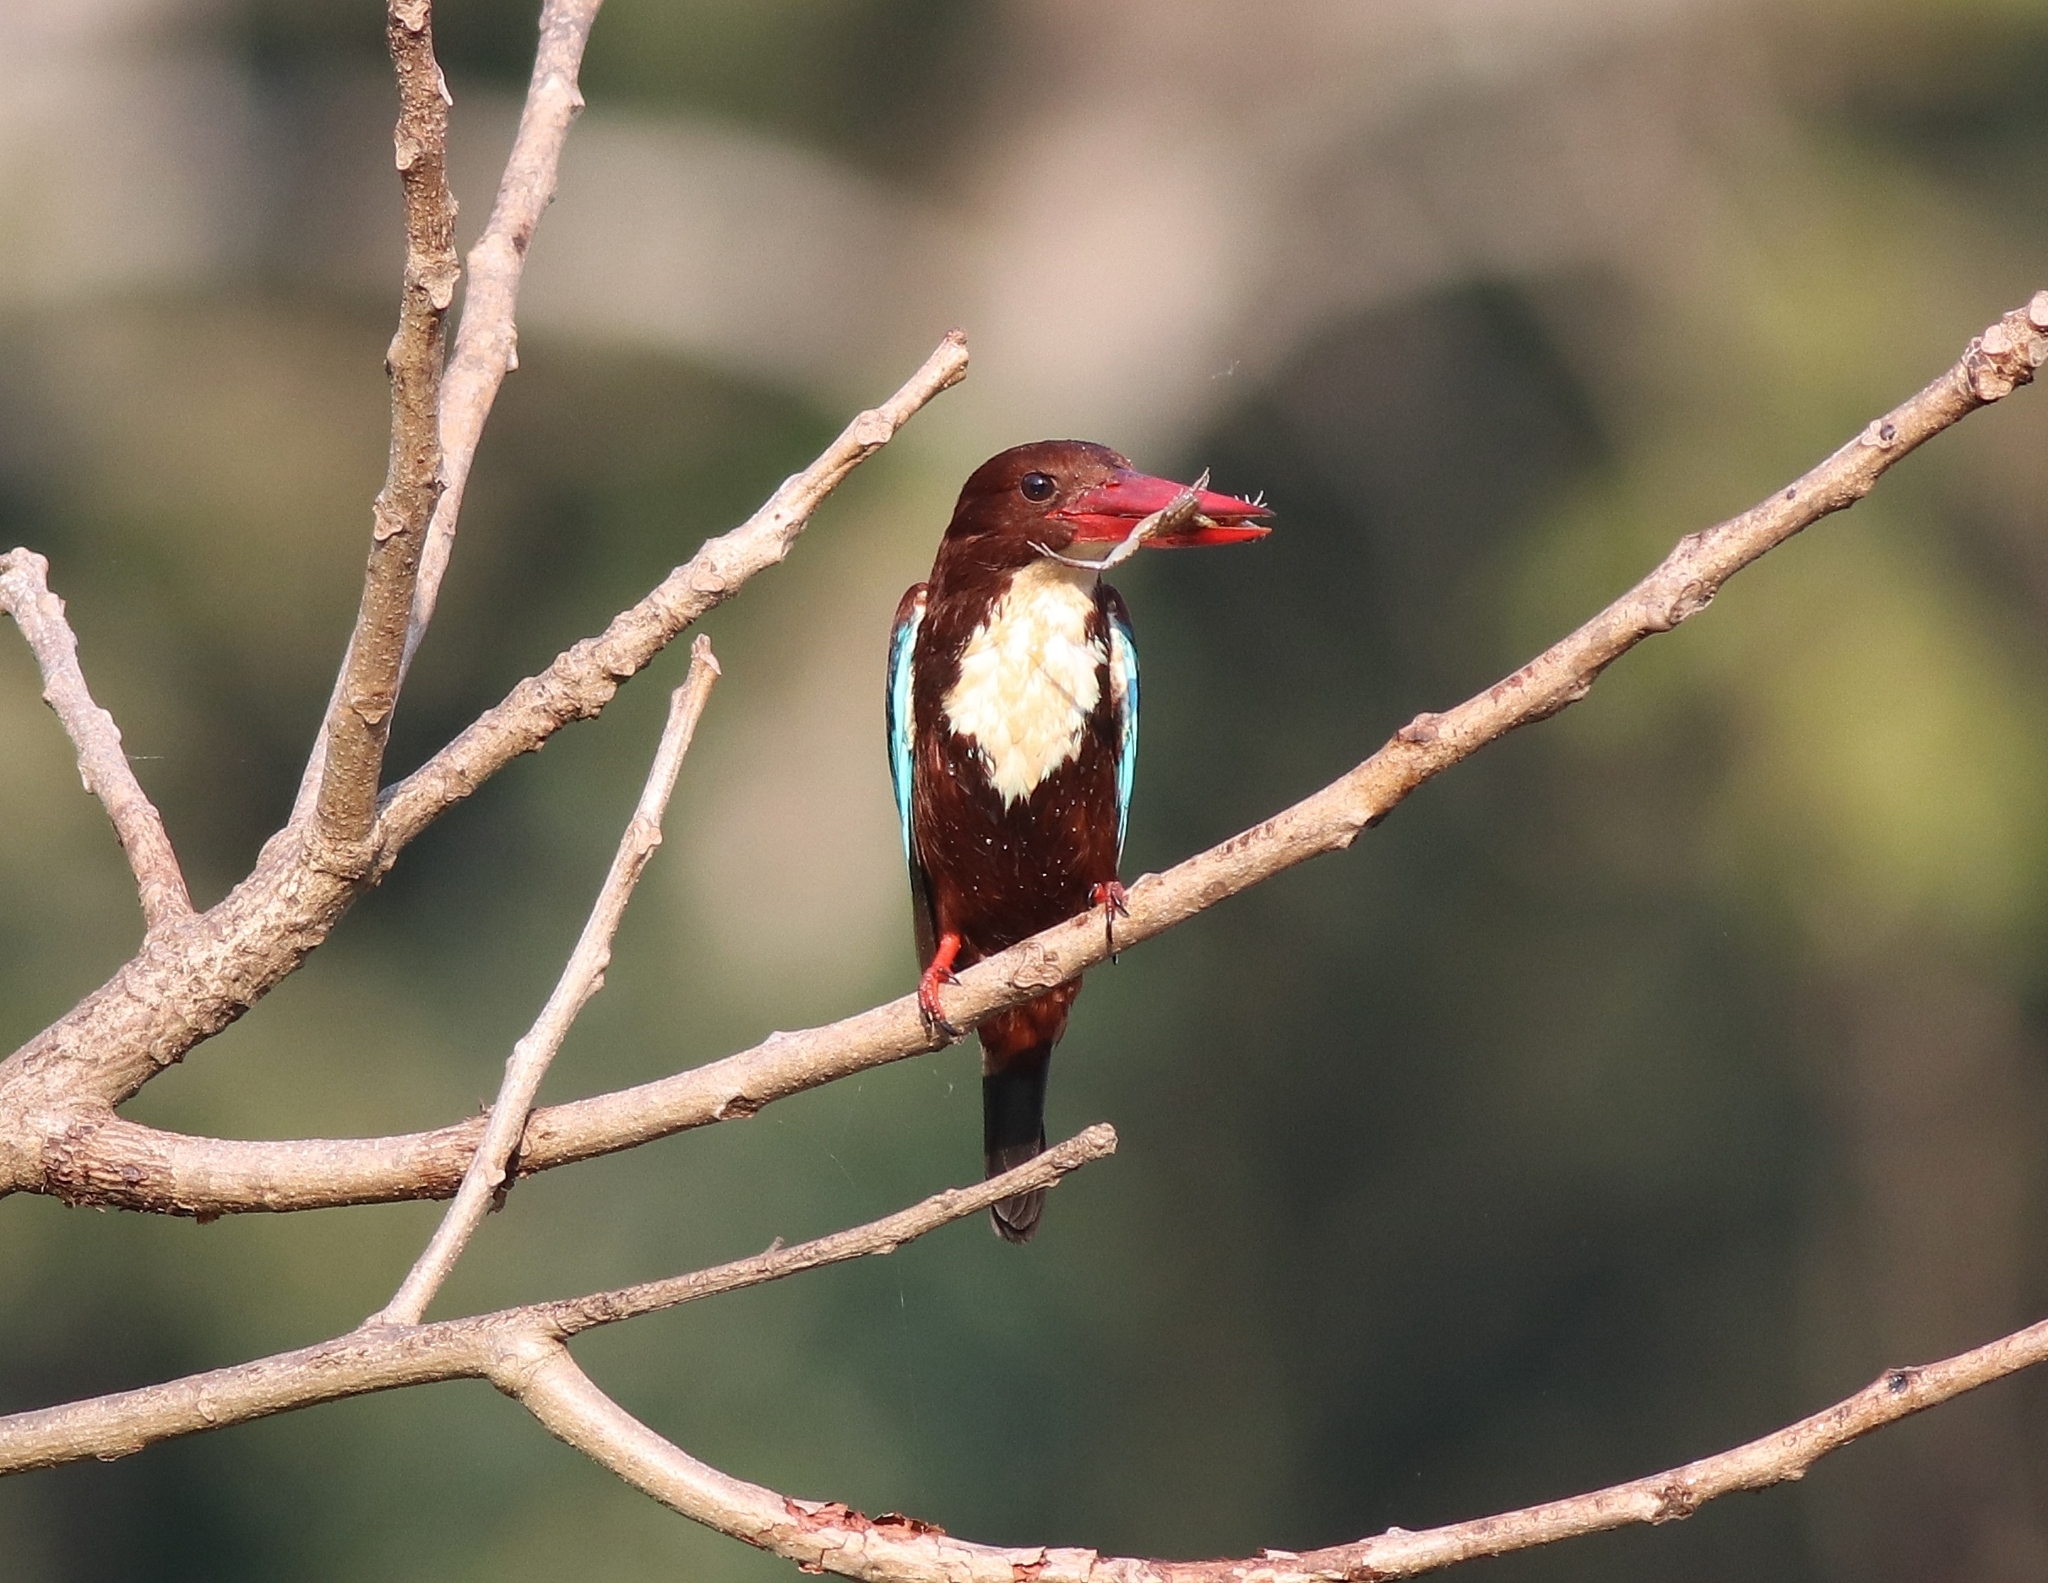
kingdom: Animalia
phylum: Chordata
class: Aves
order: Coraciiformes
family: Alcedinidae
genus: Halcyon
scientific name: Halcyon smyrnensis
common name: White-throated kingfisher
